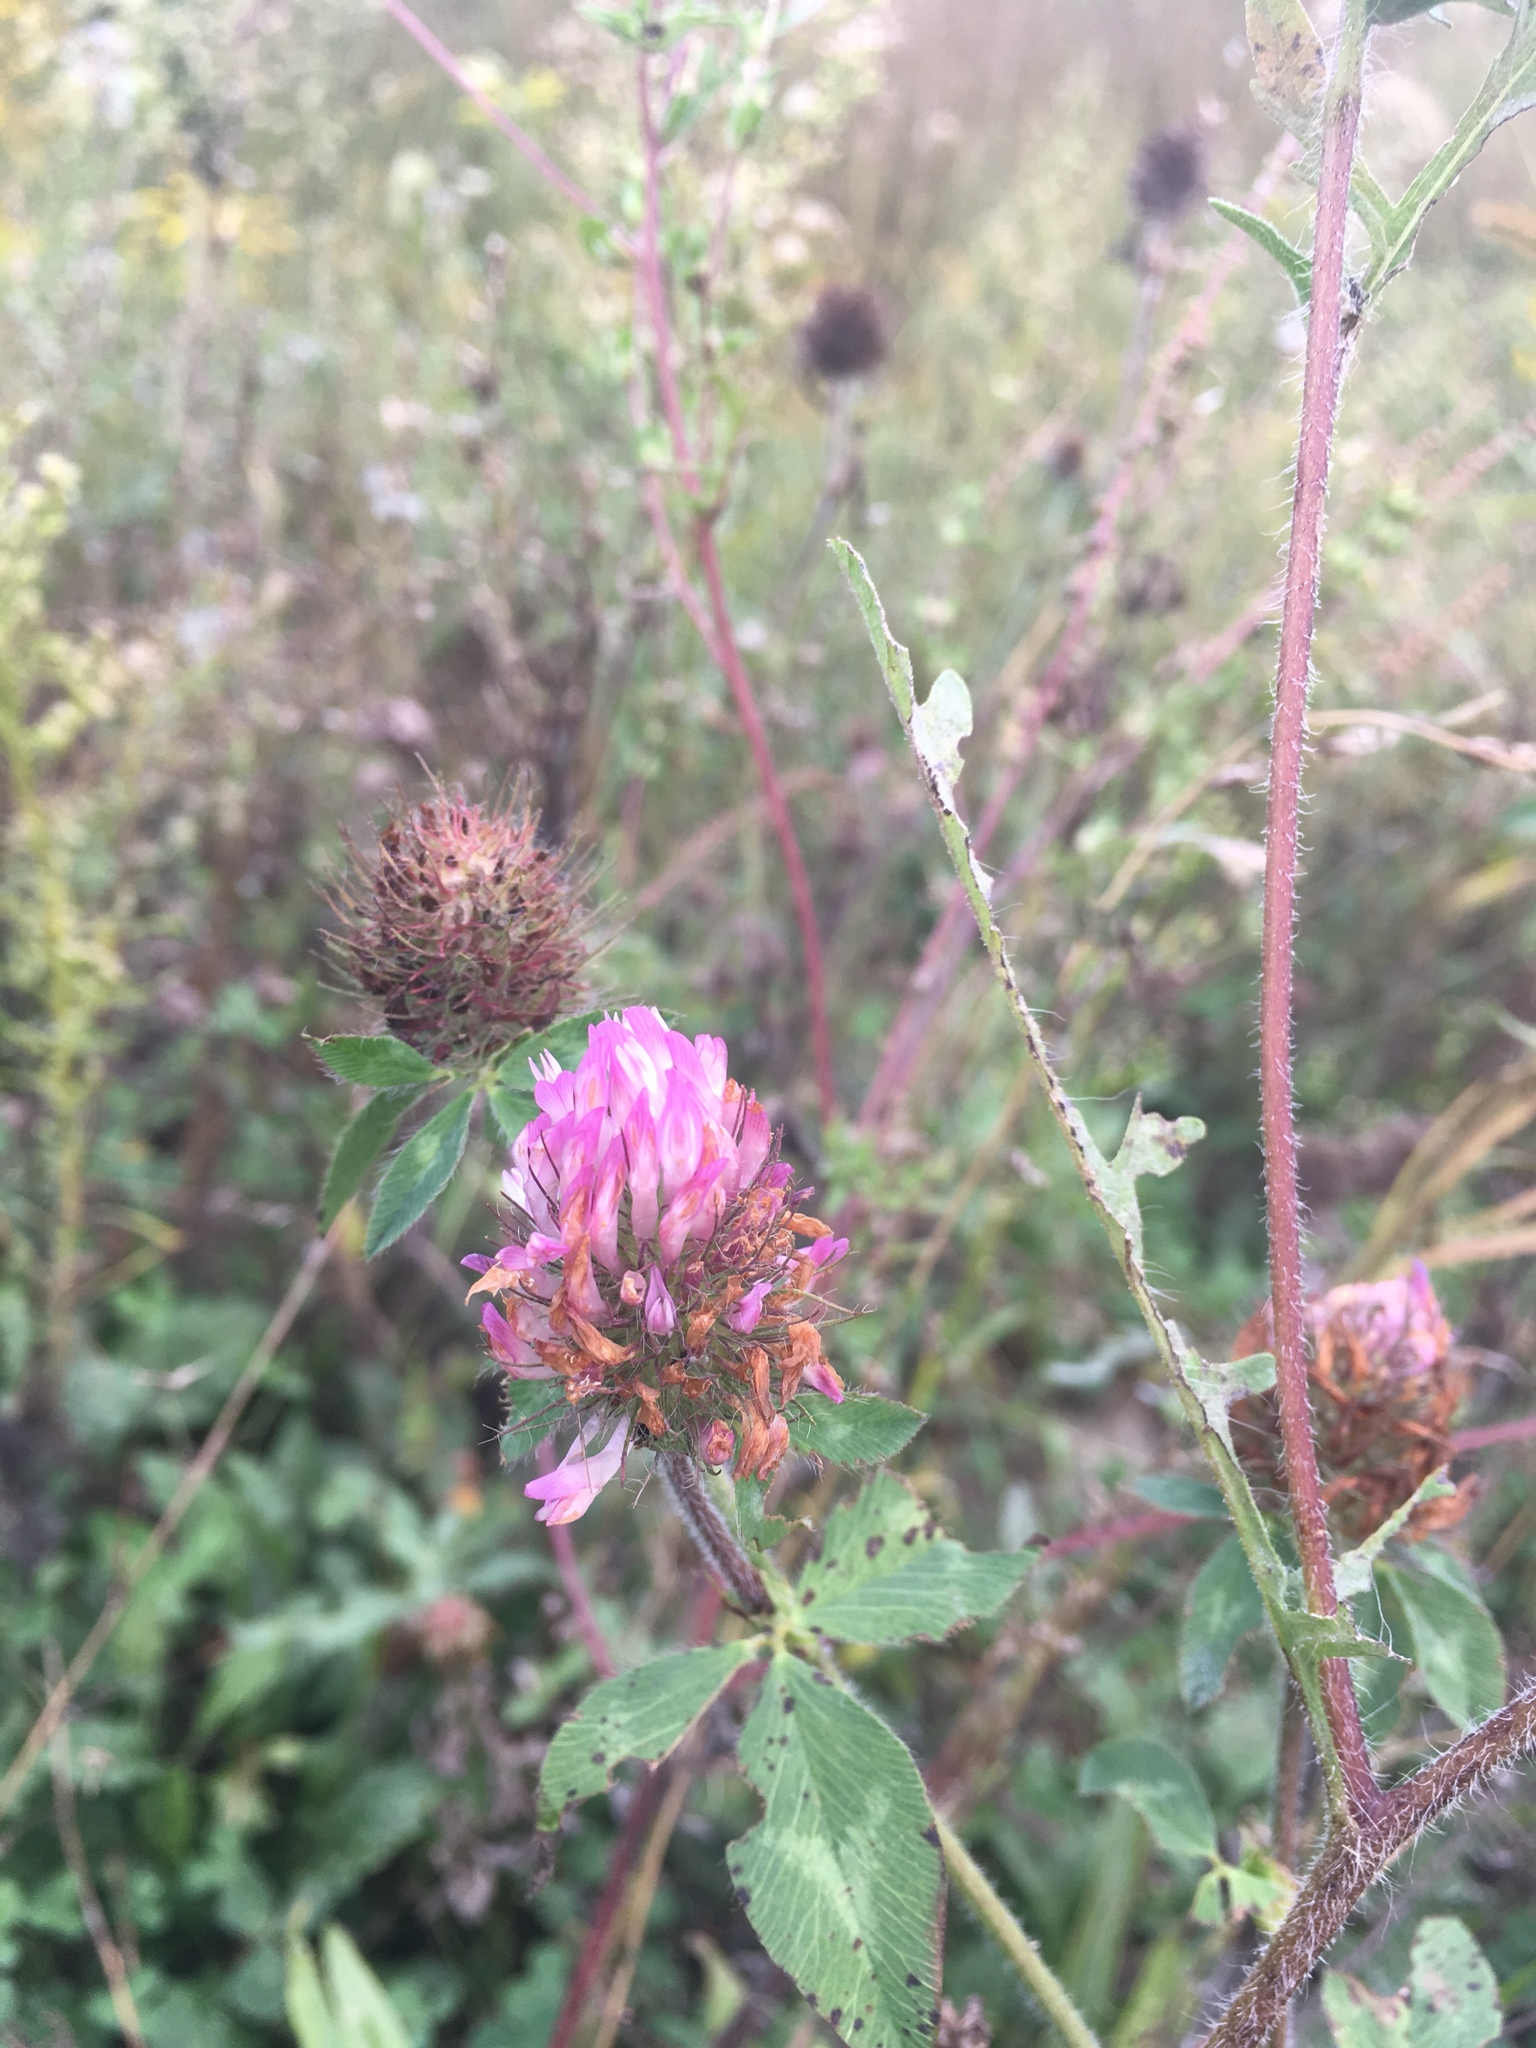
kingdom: Plantae
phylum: Tracheophyta
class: Magnoliopsida
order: Fabales
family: Fabaceae
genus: Trifolium
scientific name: Trifolium pratense
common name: Red clover
